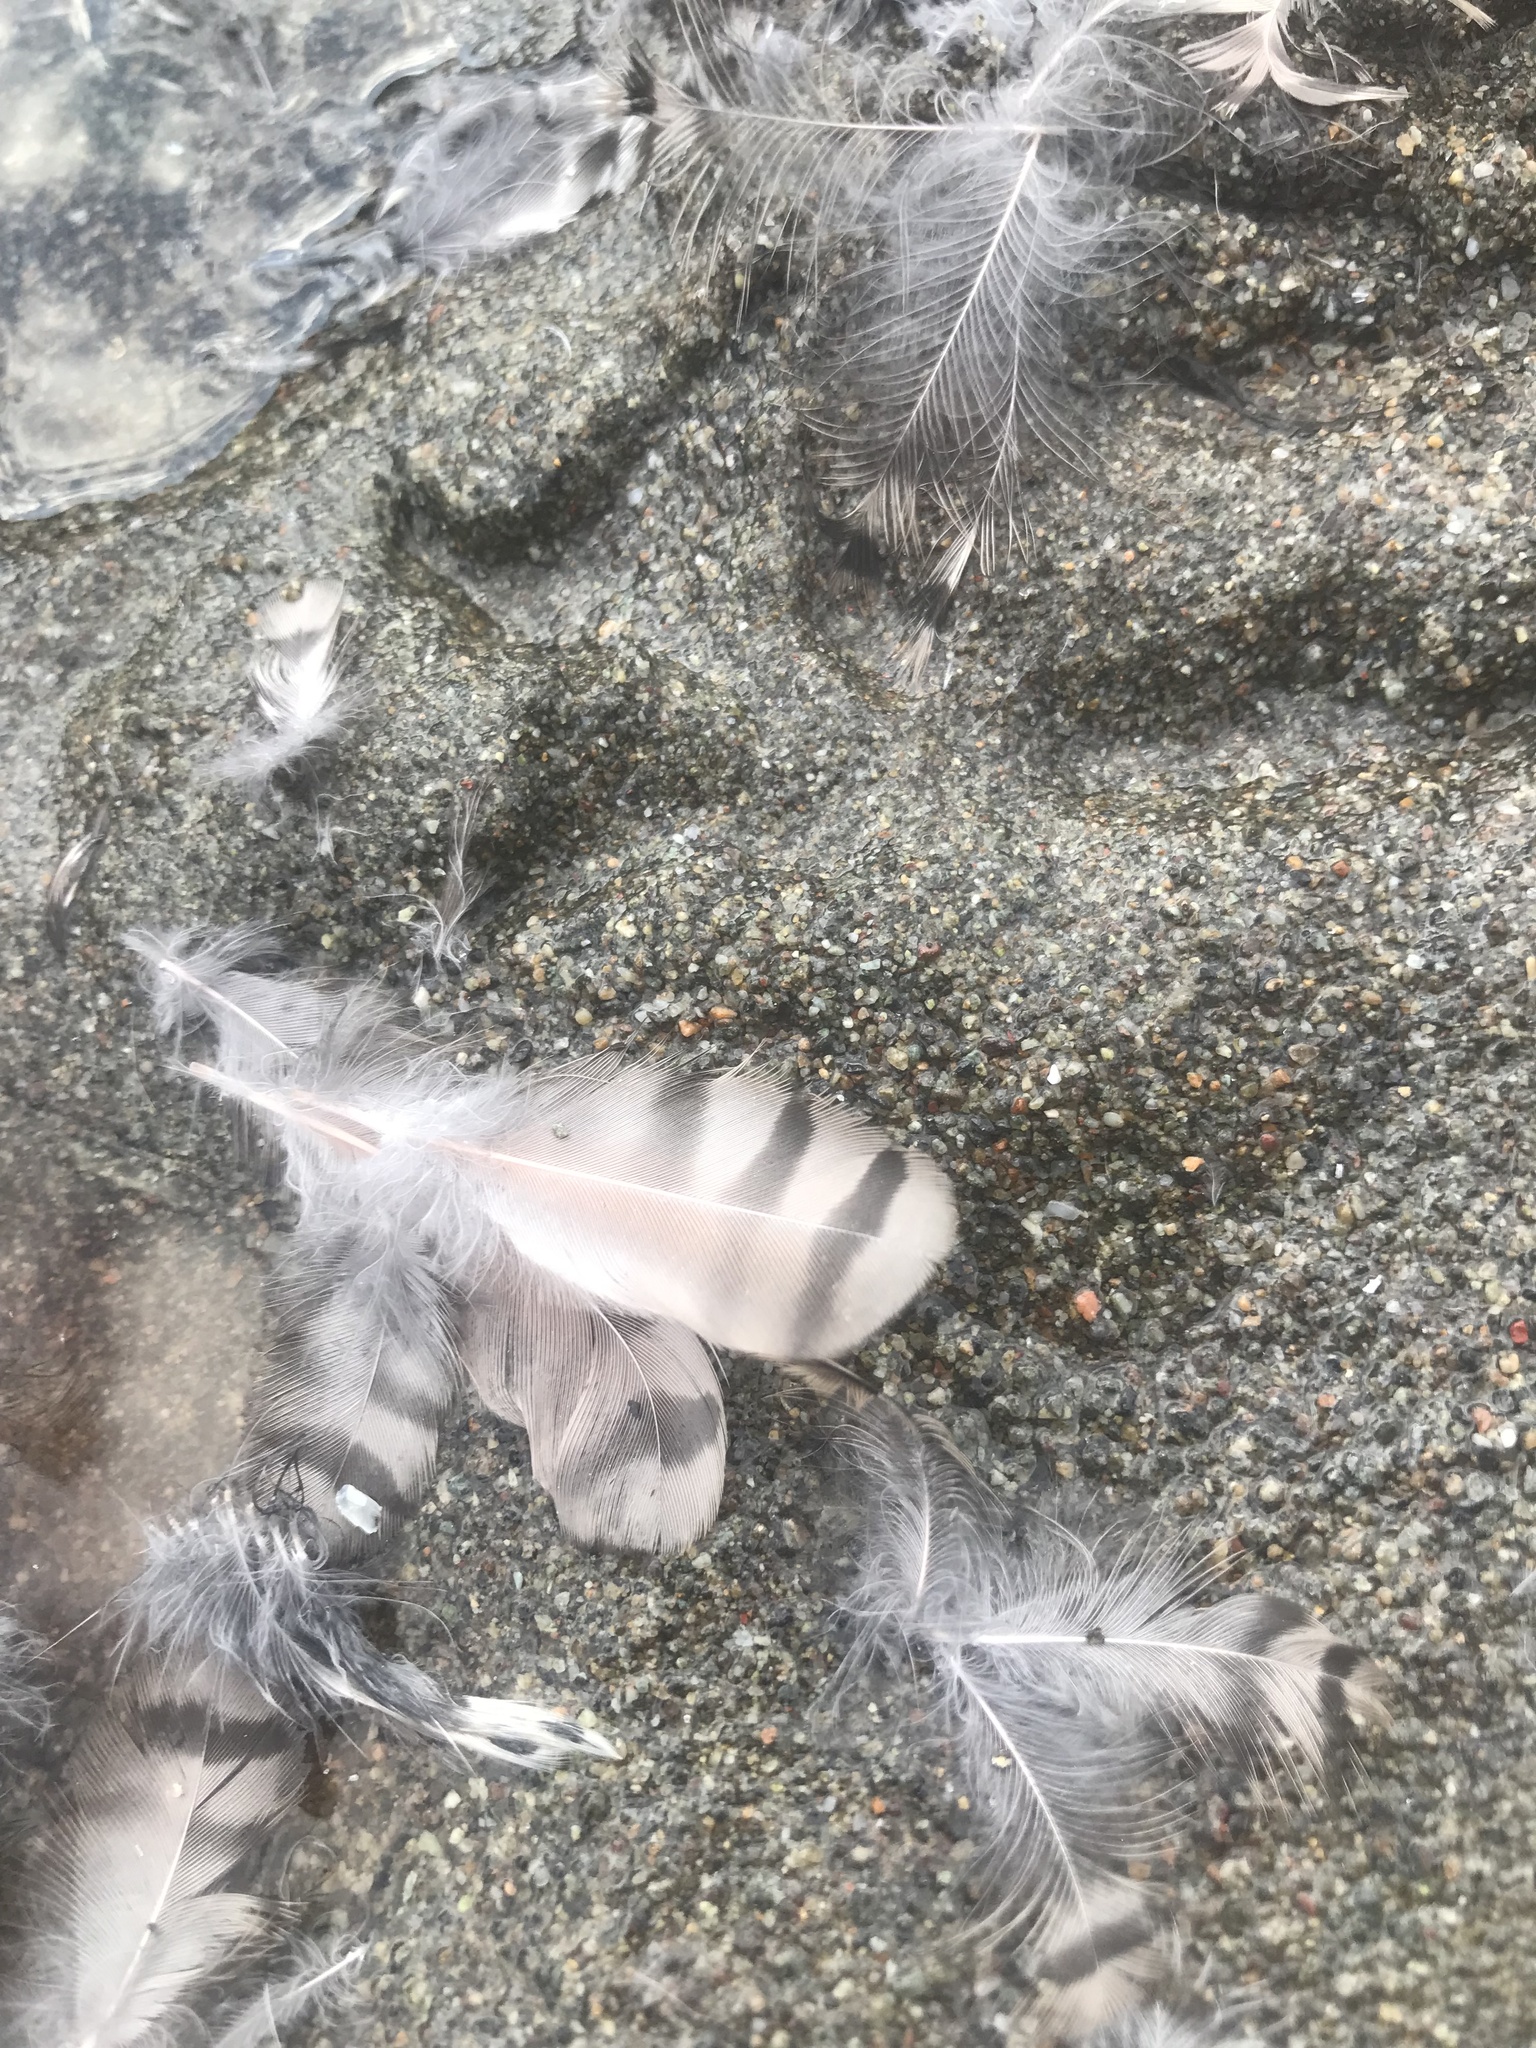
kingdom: Animalia
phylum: Chordata
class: Aves
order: Piciformes
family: Picidae
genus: Colaptes
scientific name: Colaptes auratus
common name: Northern flicker
